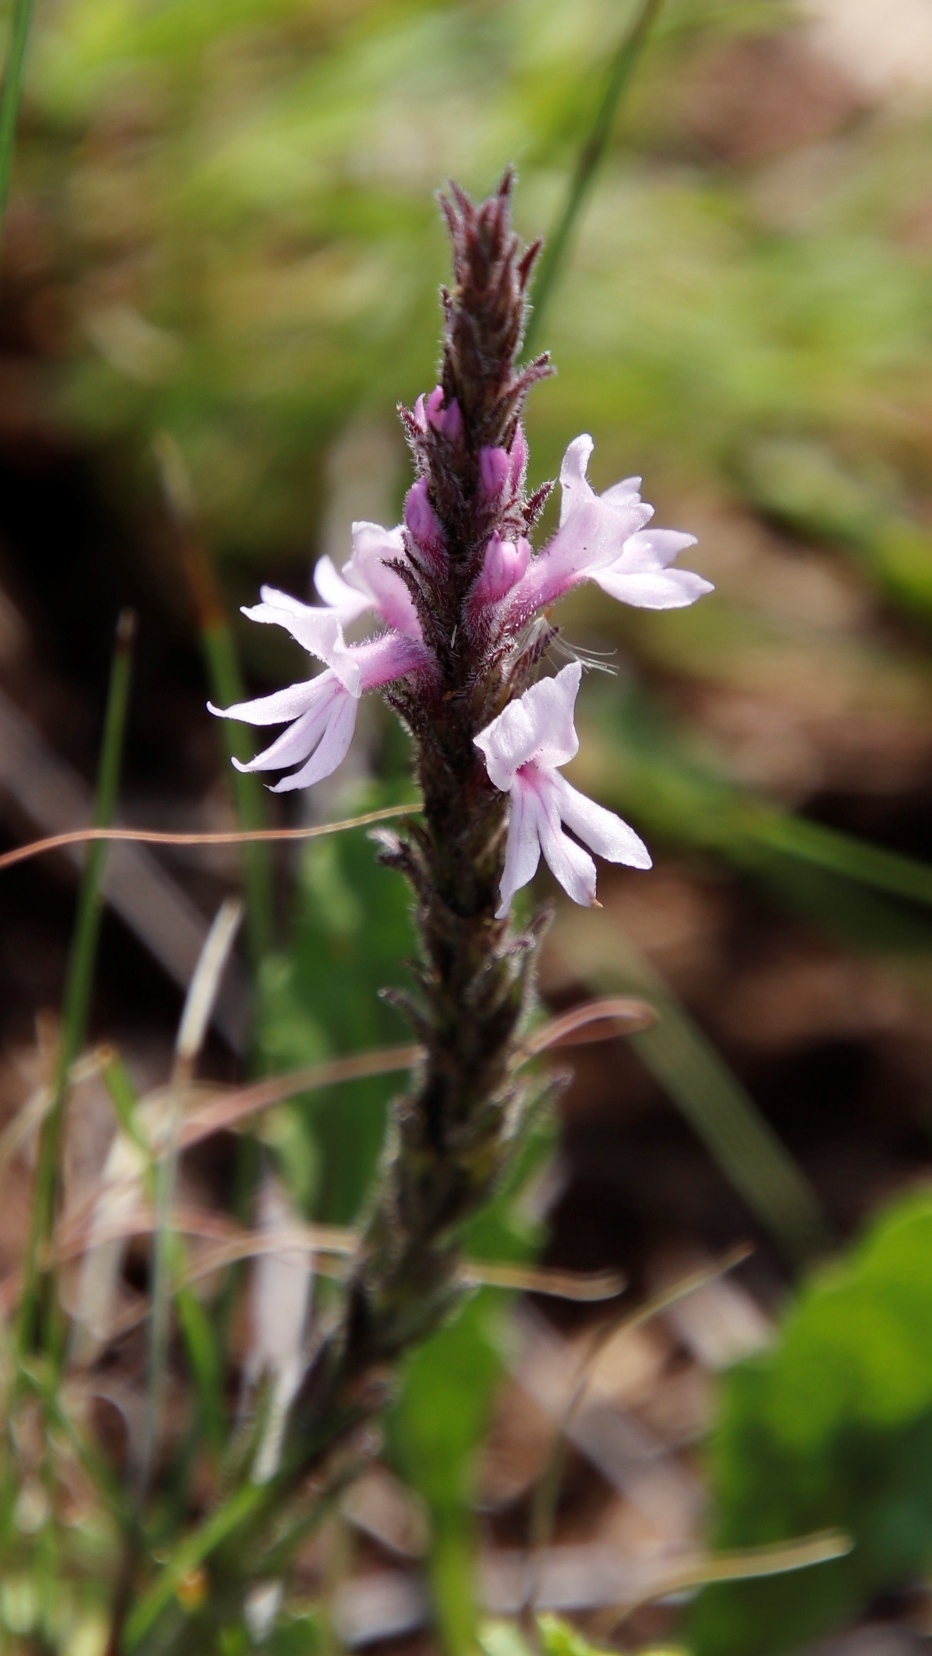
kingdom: Plantae
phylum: Tracheophyta
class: Magnoliopsida
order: Lamiales
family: Orobanchaceae
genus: Striga
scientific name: Striga bilabiata
